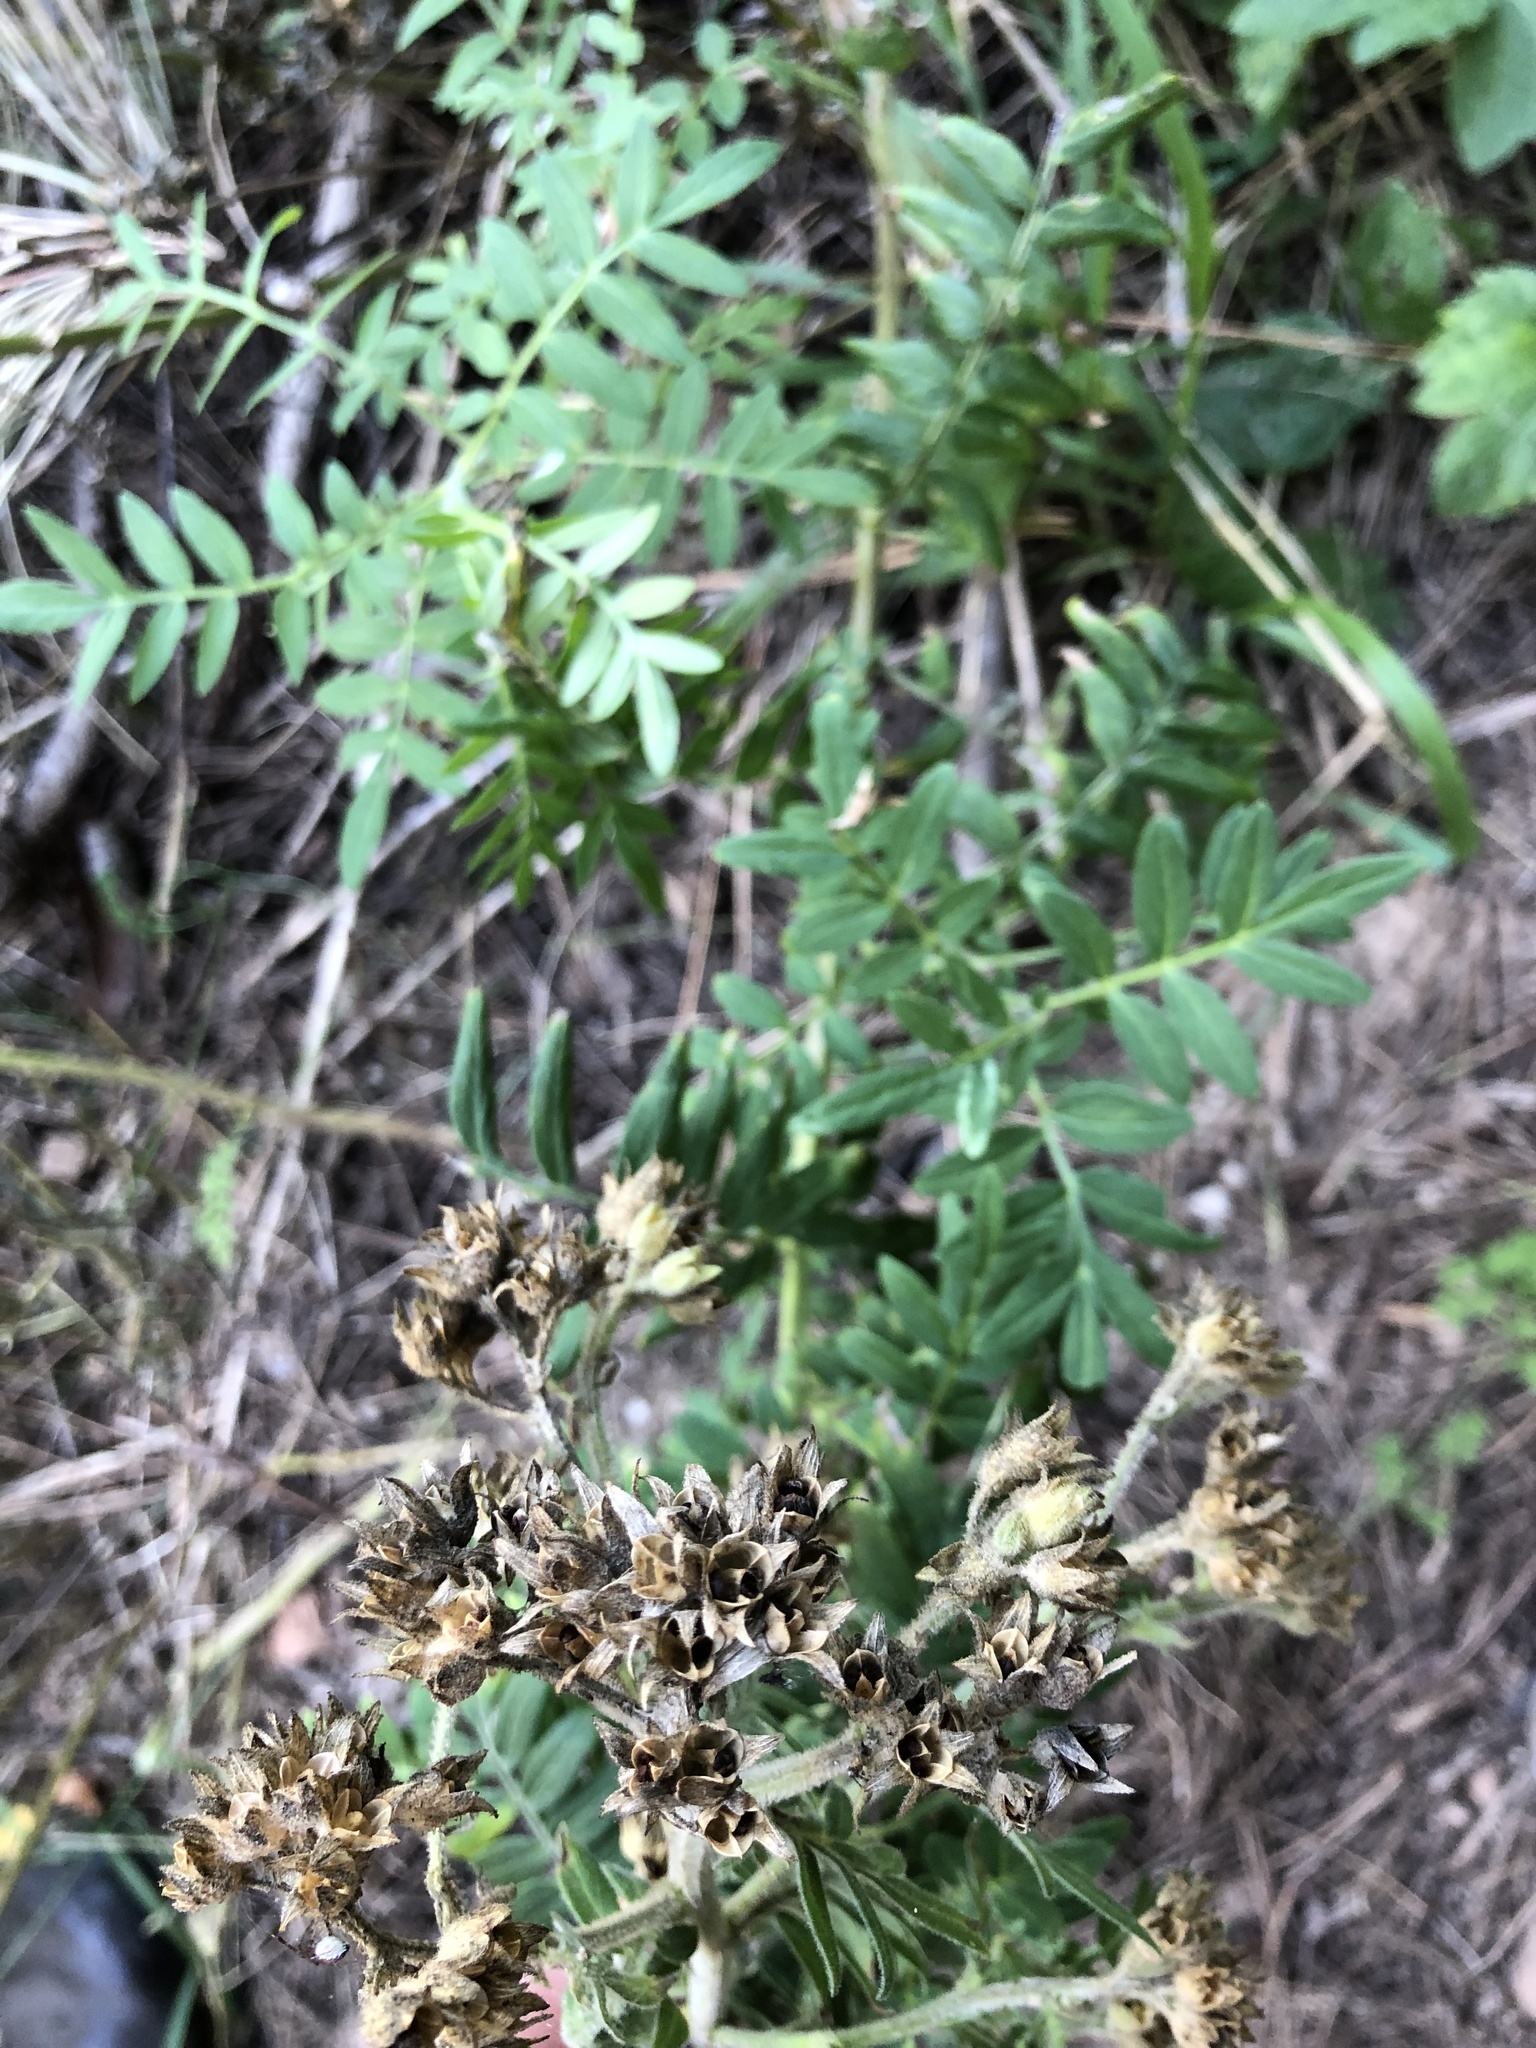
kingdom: Plantae
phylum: Tracheophyta
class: Magnoliopsida
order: Ericales
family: Polemoniaceae
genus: Polemonium
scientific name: Polemonium foliosissimum
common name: Leafy jacob's-ladder
